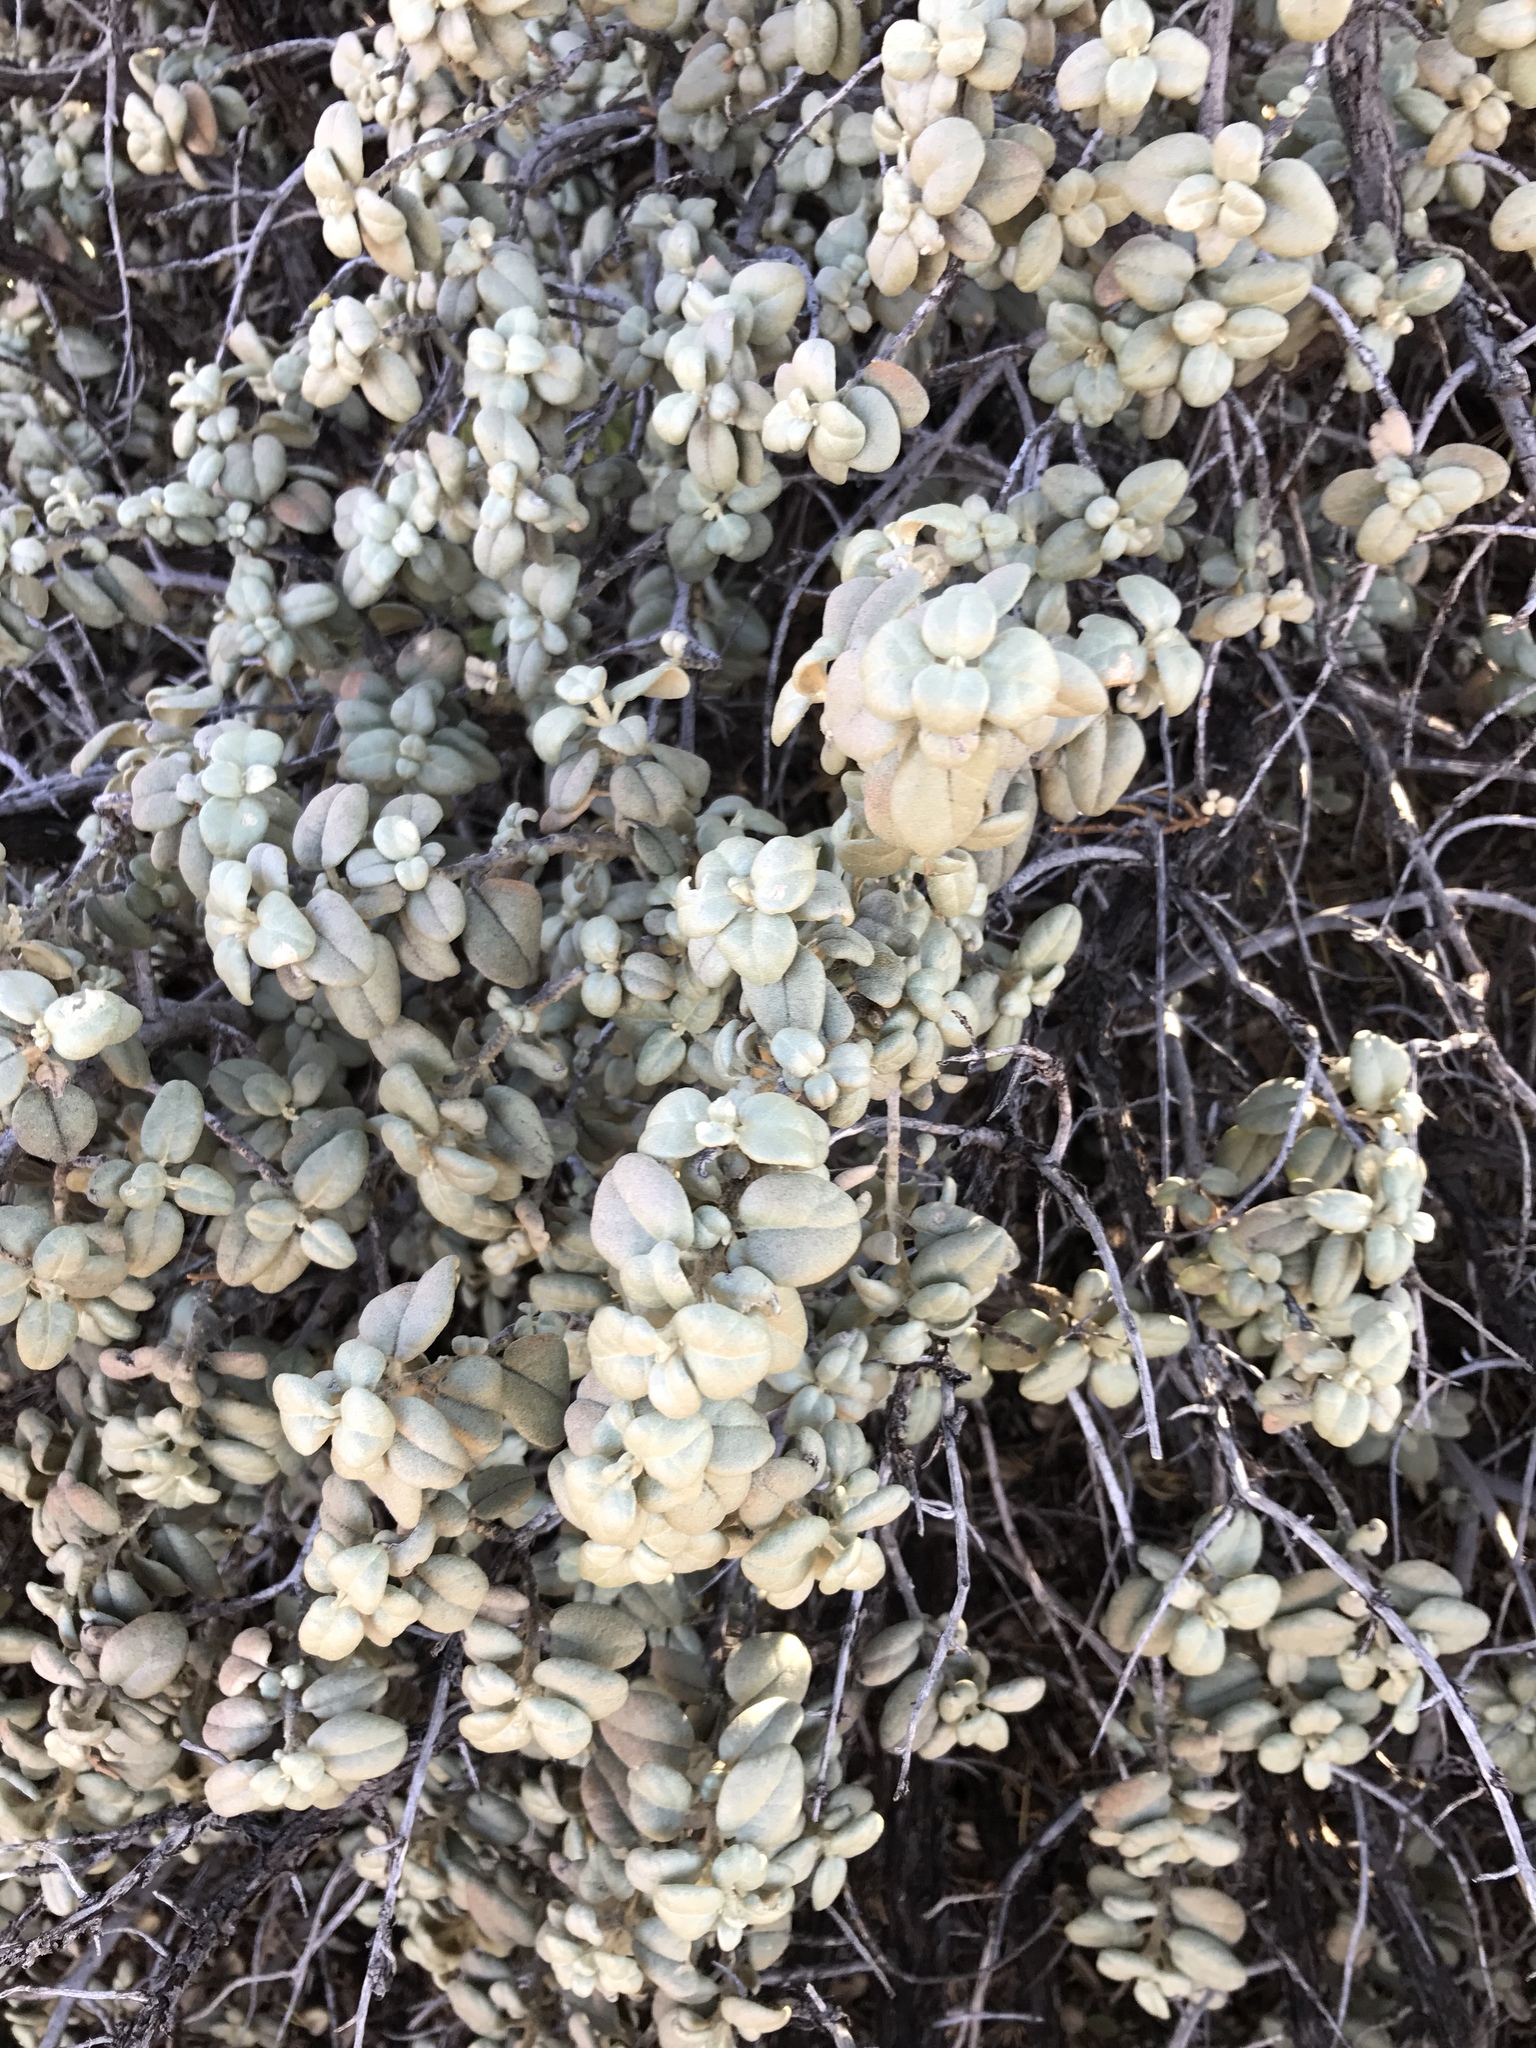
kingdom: Plantae
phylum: Tracheophyta
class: Magnoliopsida
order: Rosales
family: Elaeagnaceae
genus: Shepherdia
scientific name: Shepherdia rotundifolia
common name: Silverscale
